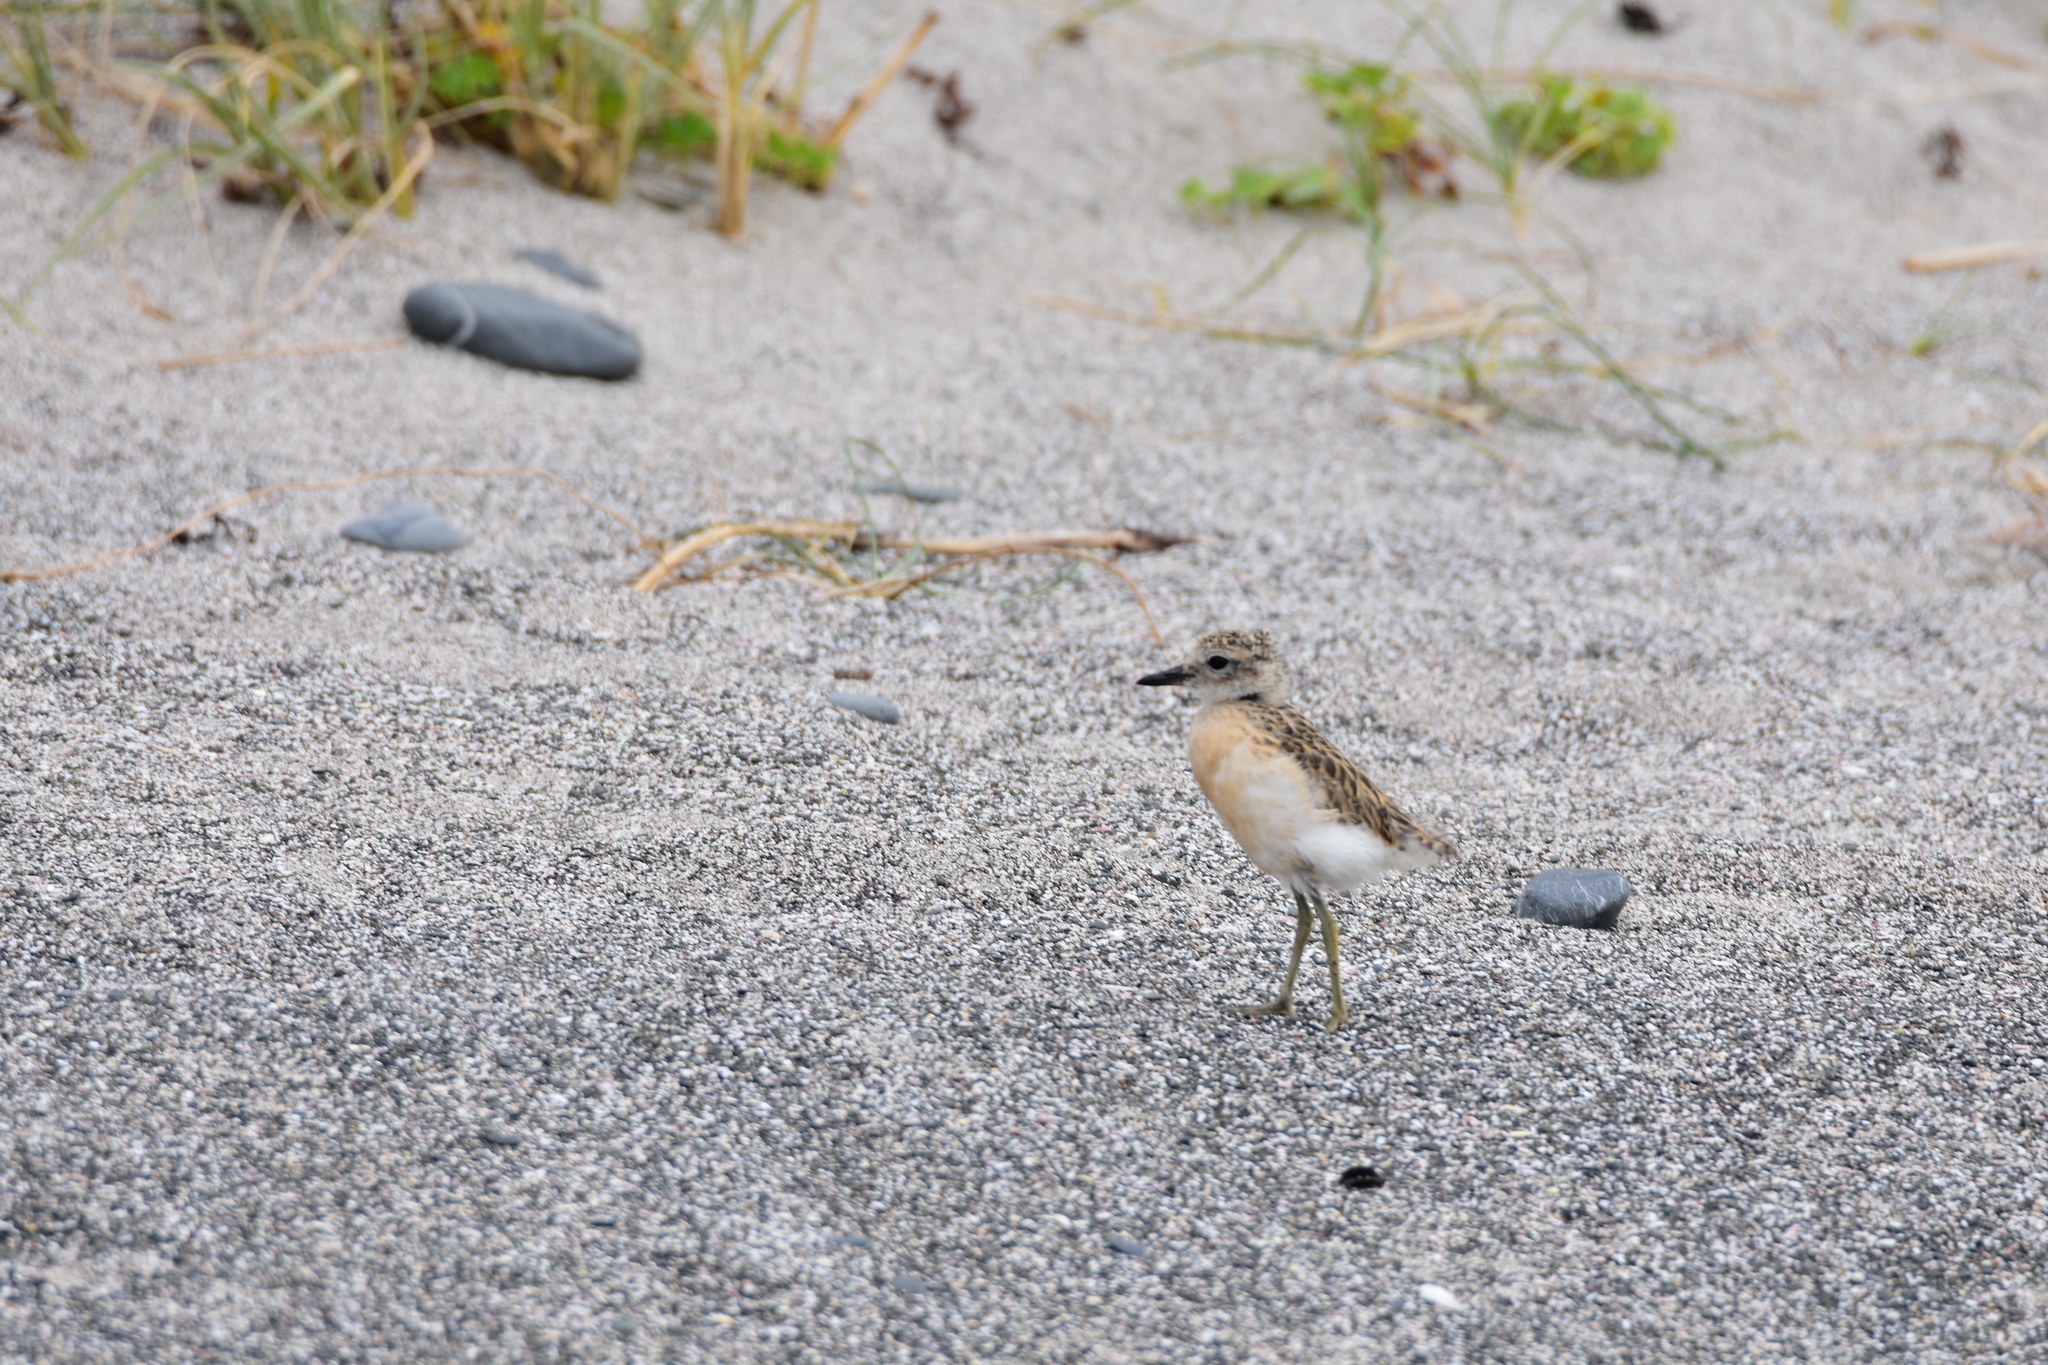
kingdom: Animalia
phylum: Chordata
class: Aves
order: Charadriiformes
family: Charadriidae
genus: Anarhynchus
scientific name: Anarhynchus
